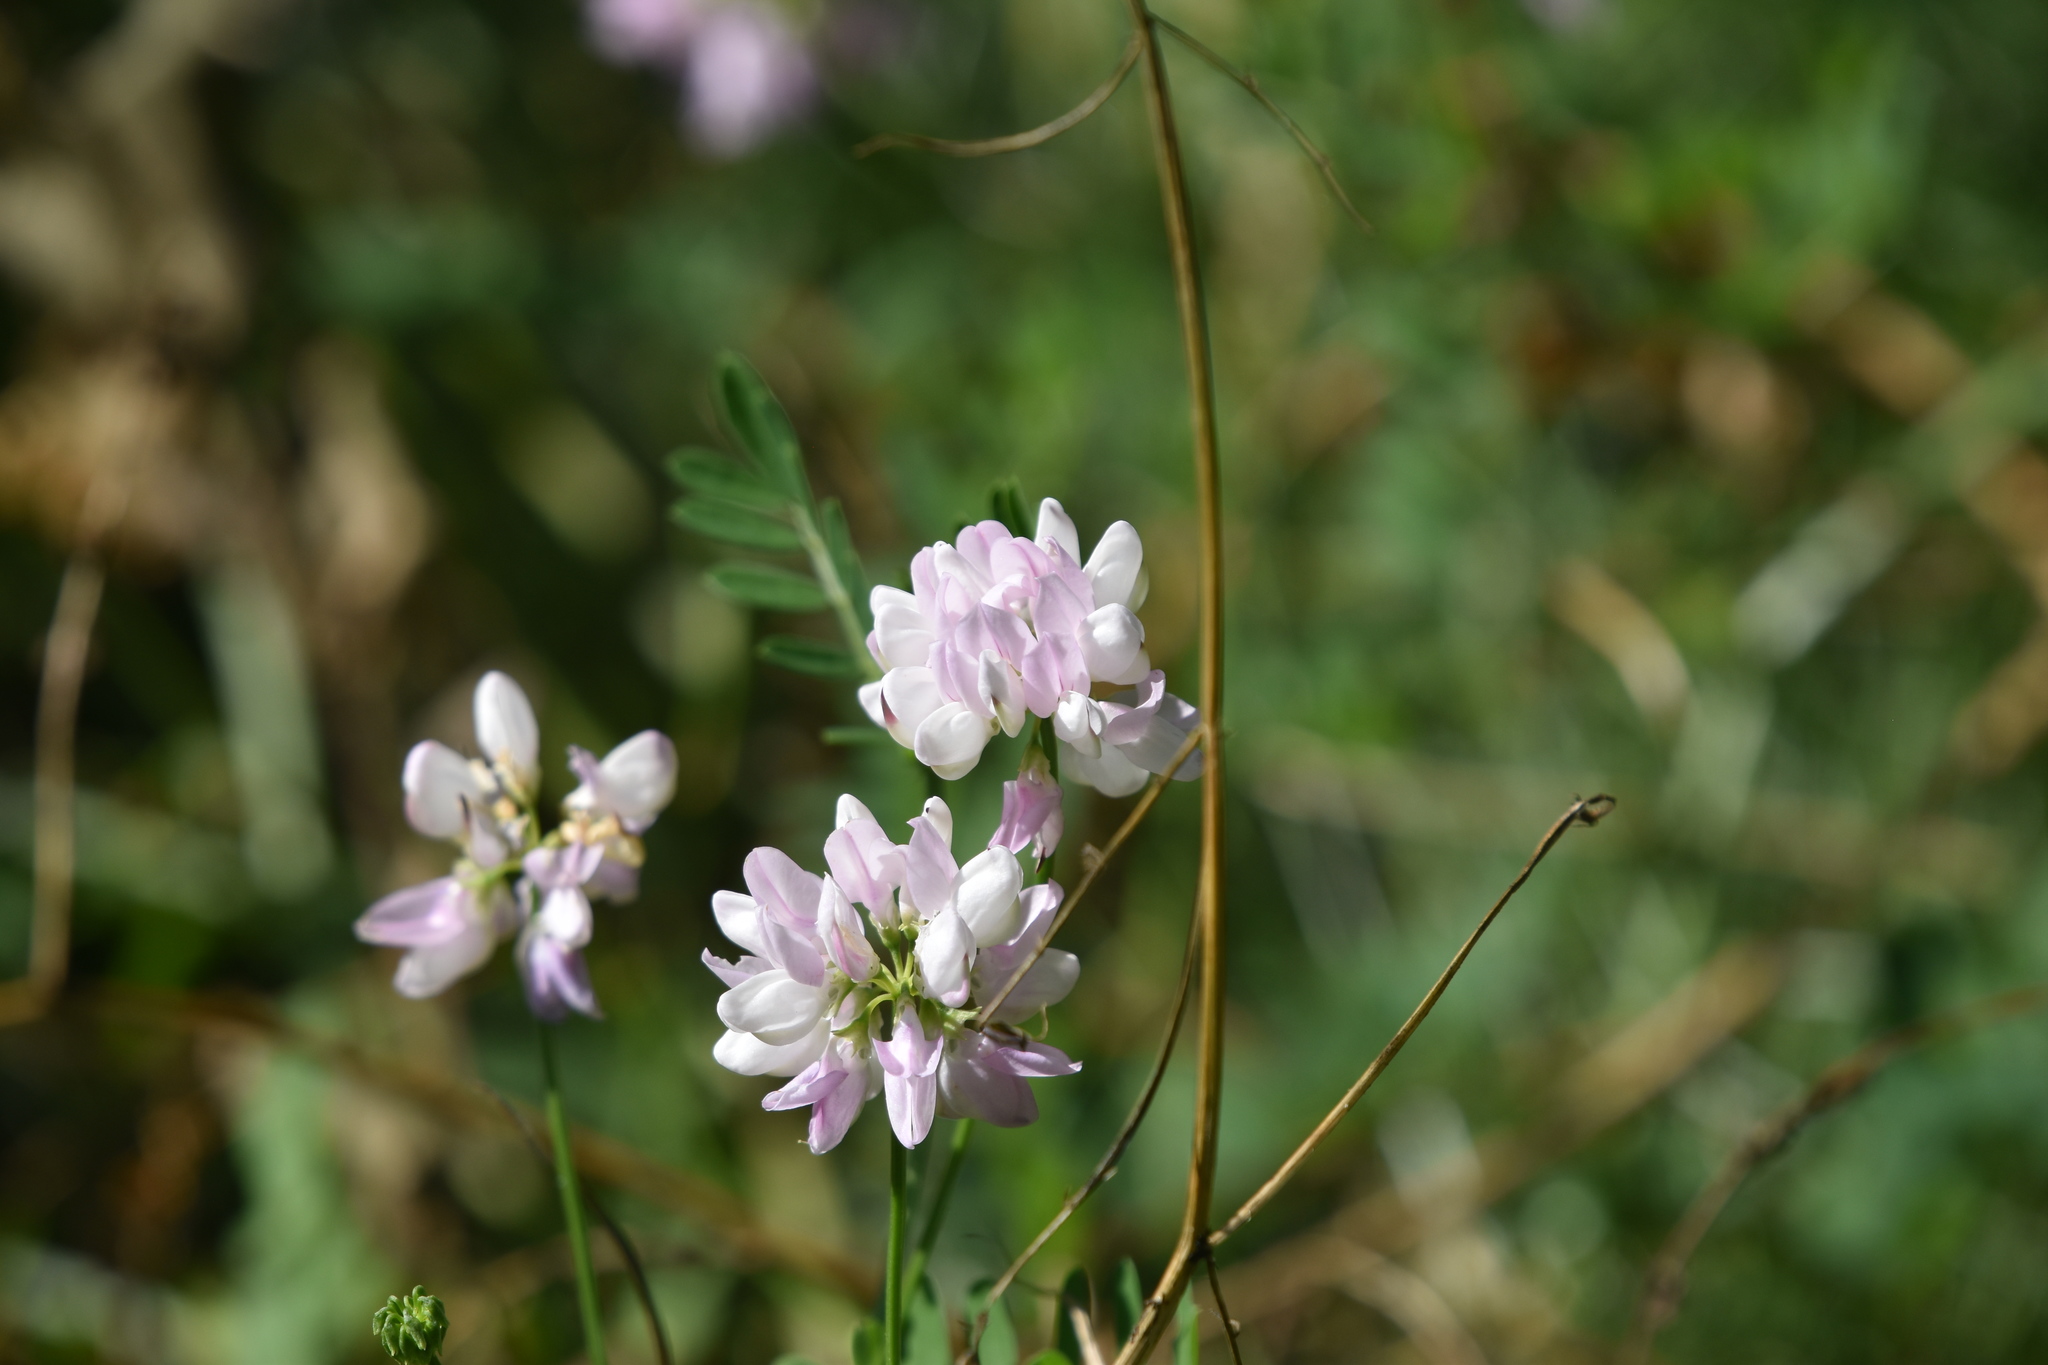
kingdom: Plantae
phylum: Tracheophyta
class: Magnoliopsida
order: Fabales
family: Fabaceae
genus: Coronilla
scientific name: Coronilla varia
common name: Crownvetch
